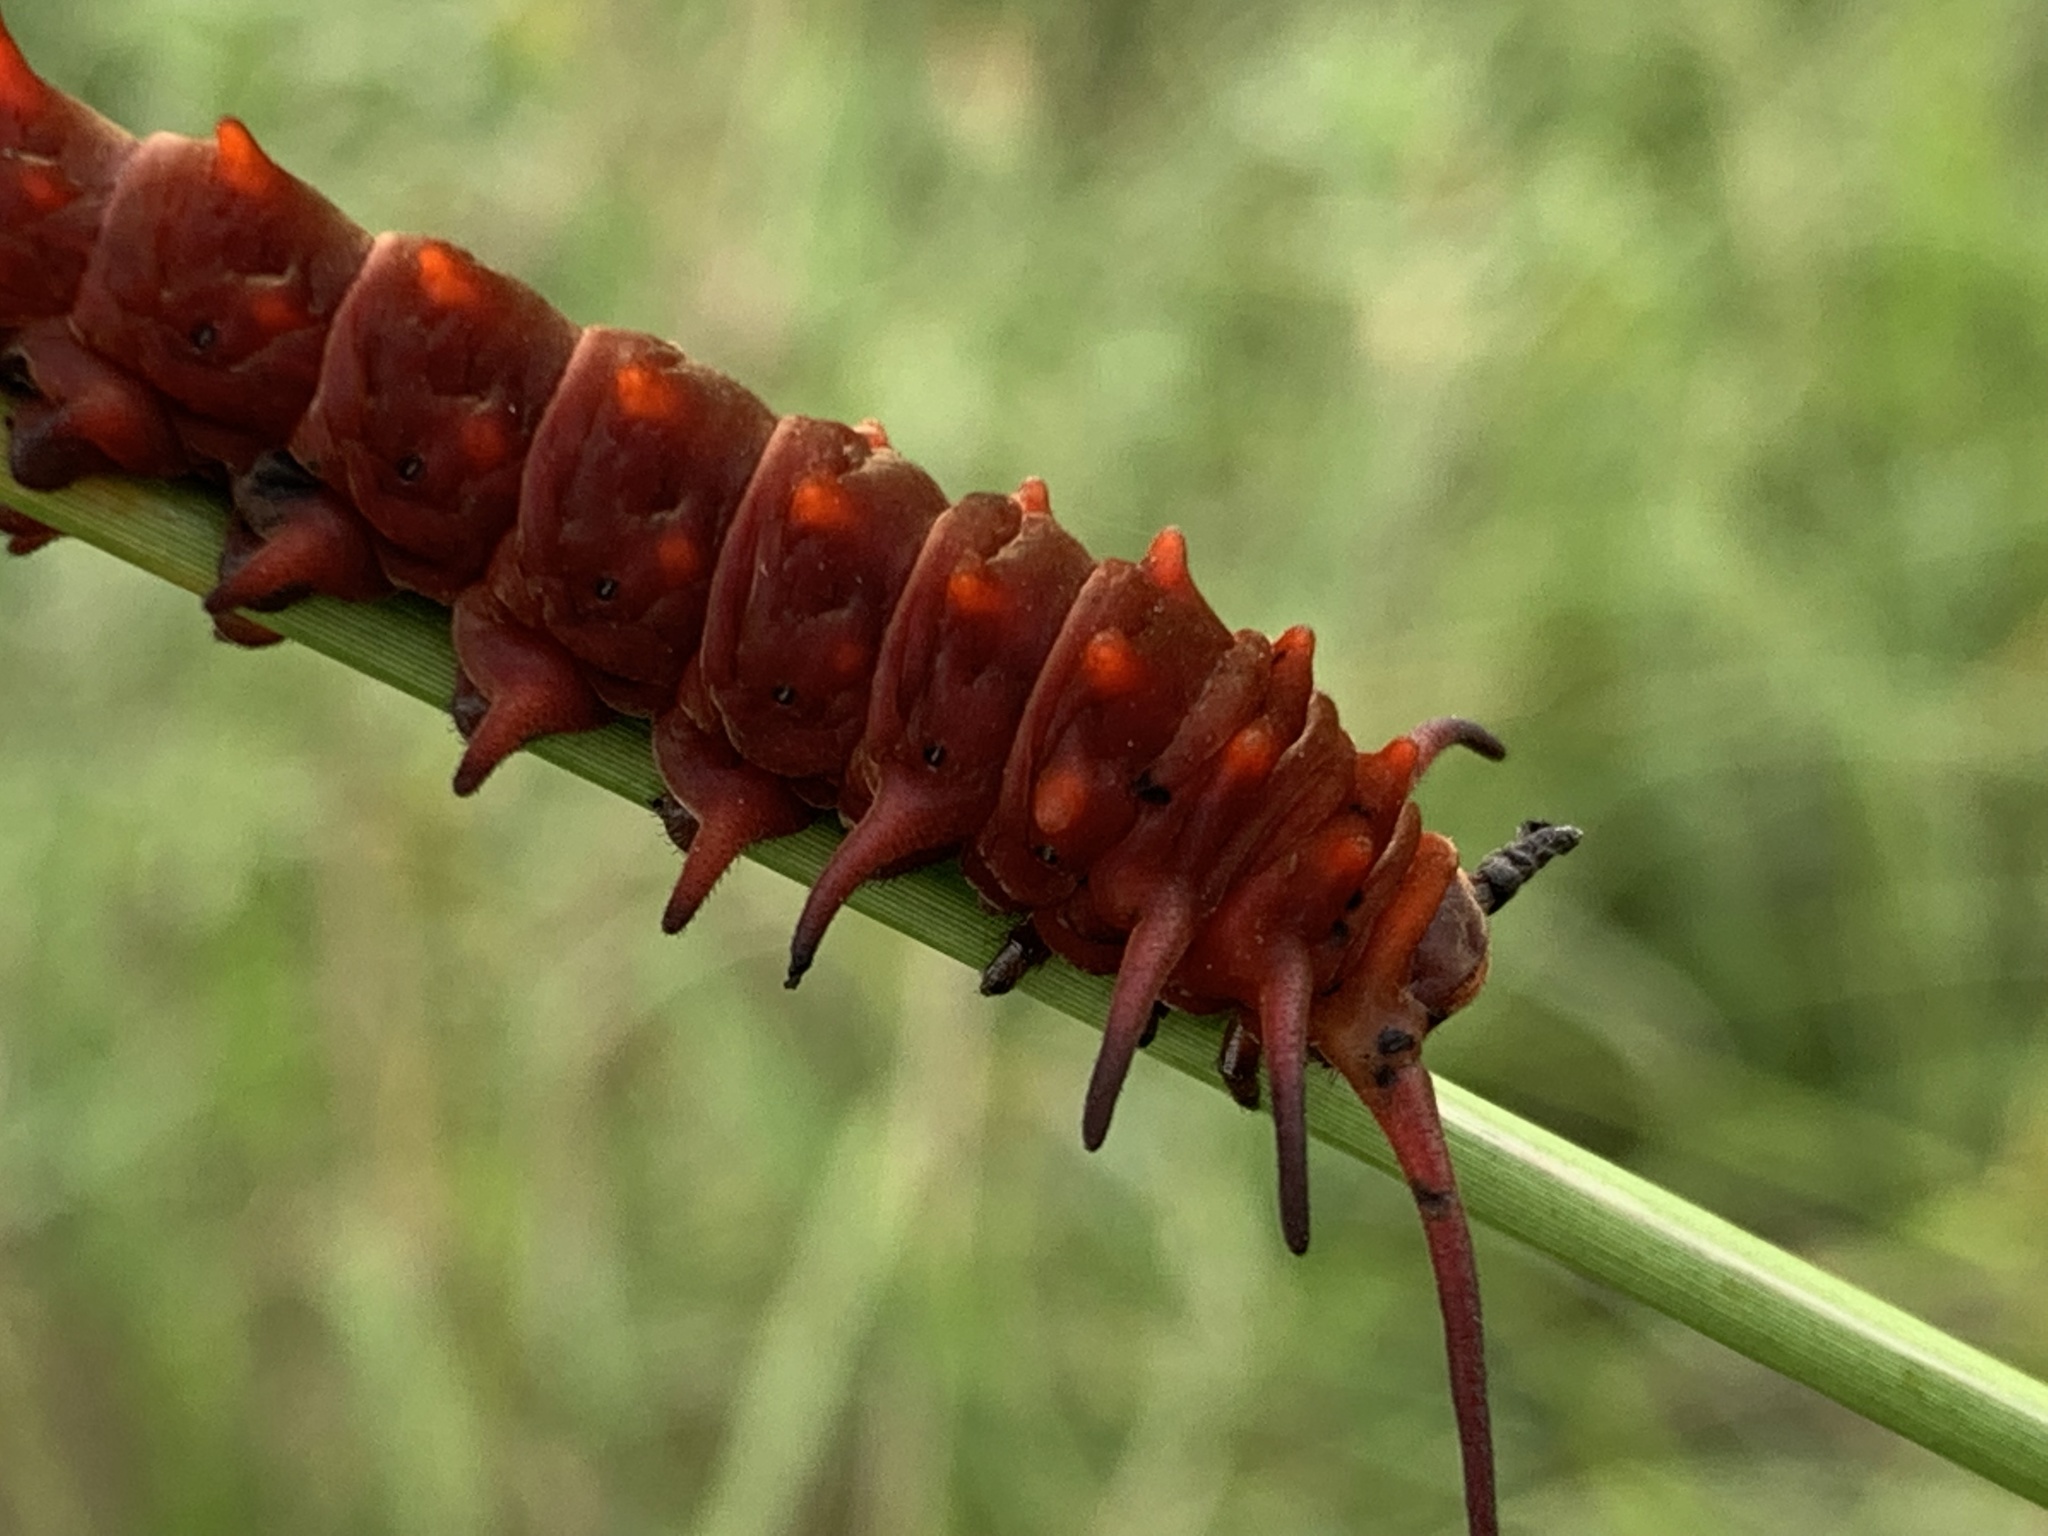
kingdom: Animalia
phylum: Arthropoda
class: Insecta
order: Lepidoptera
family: Papilionidae
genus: Battus
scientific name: Battus philenor
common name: Pipevine swallowtail
